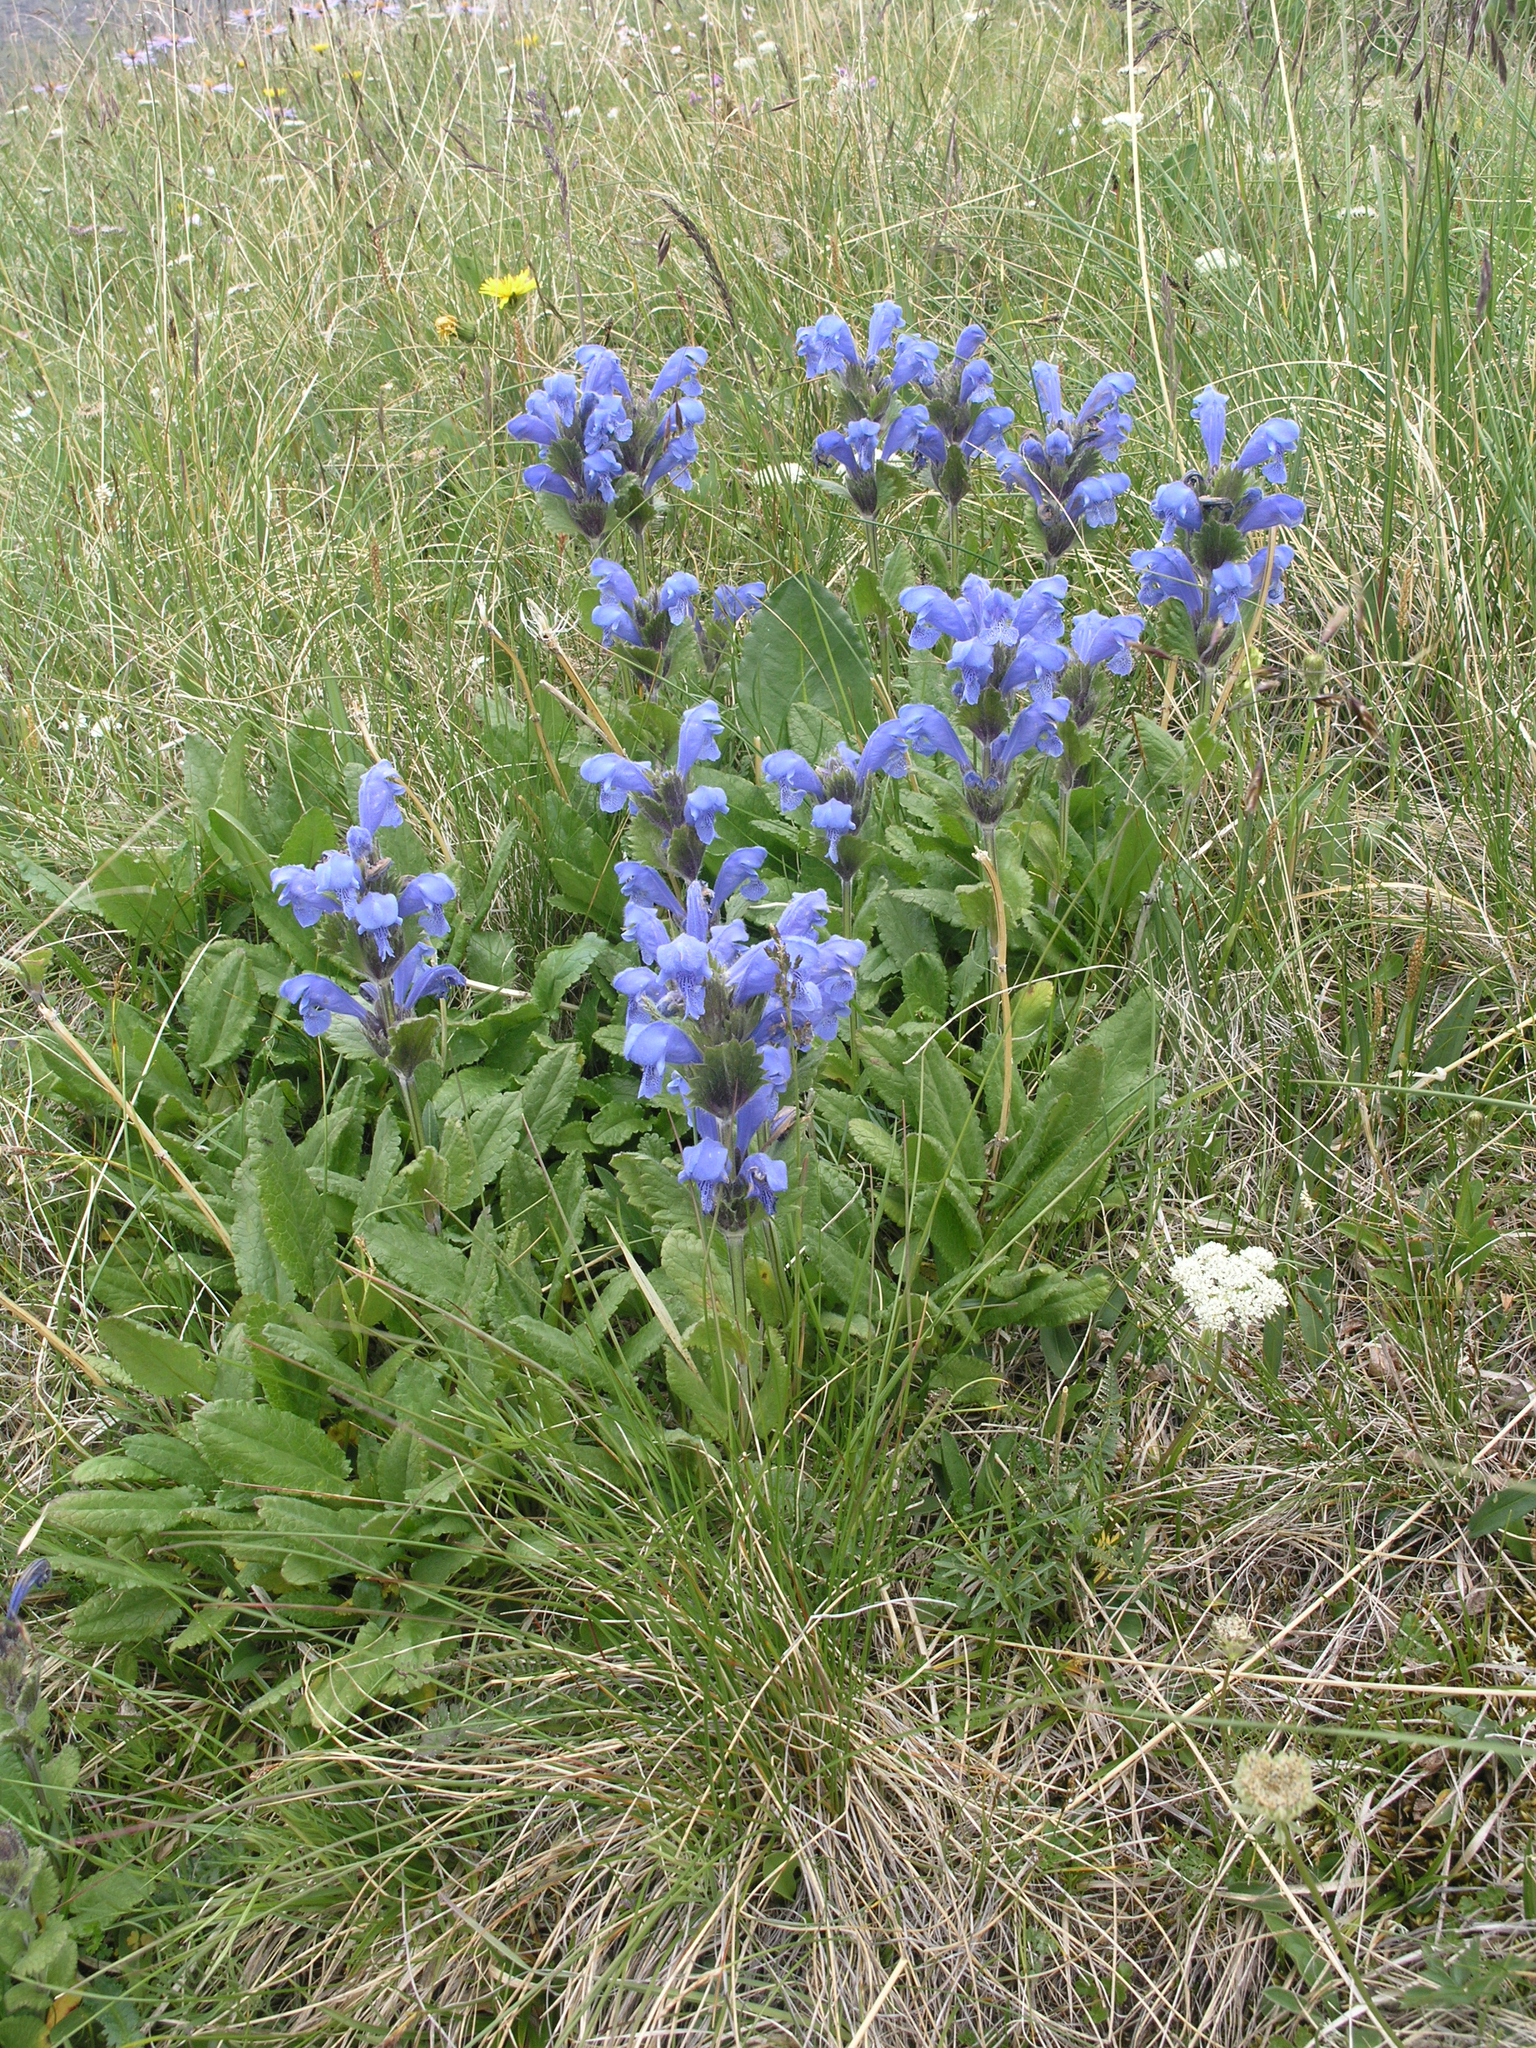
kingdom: Plantae
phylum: Tracheophyta
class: Magnoliopsida
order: Lamiales
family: Lamiaceae
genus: Dracocephalum
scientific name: Dracocephalum grandiflorum
